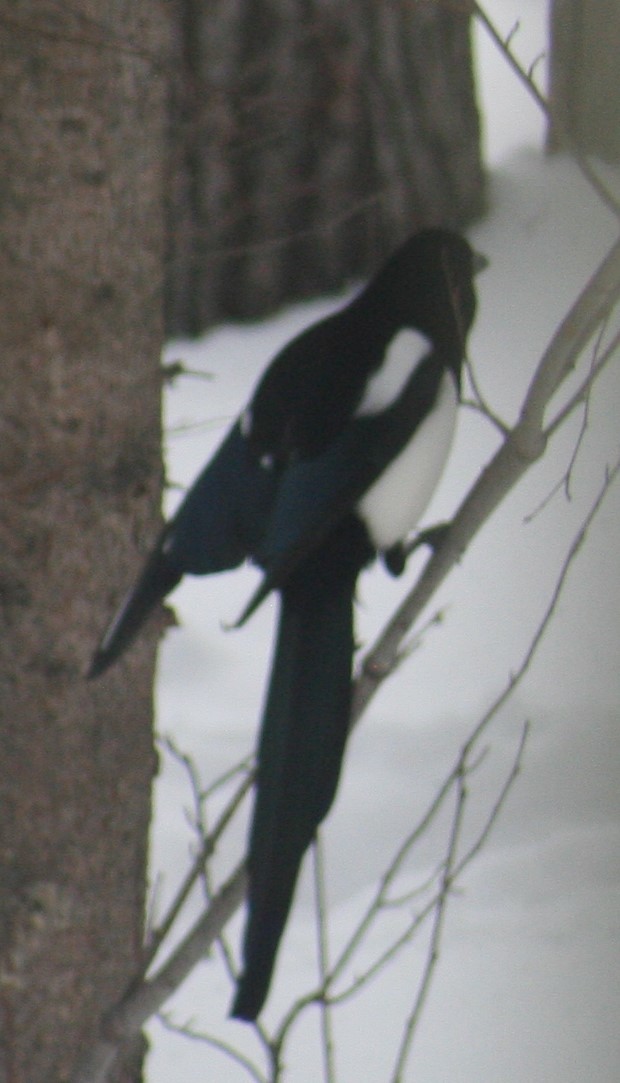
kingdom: Animalia
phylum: Chordata
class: Aves
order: Passeriformes
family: Corvidae
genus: Pica
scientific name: Pica hudsonia
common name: Black-billed magpie
